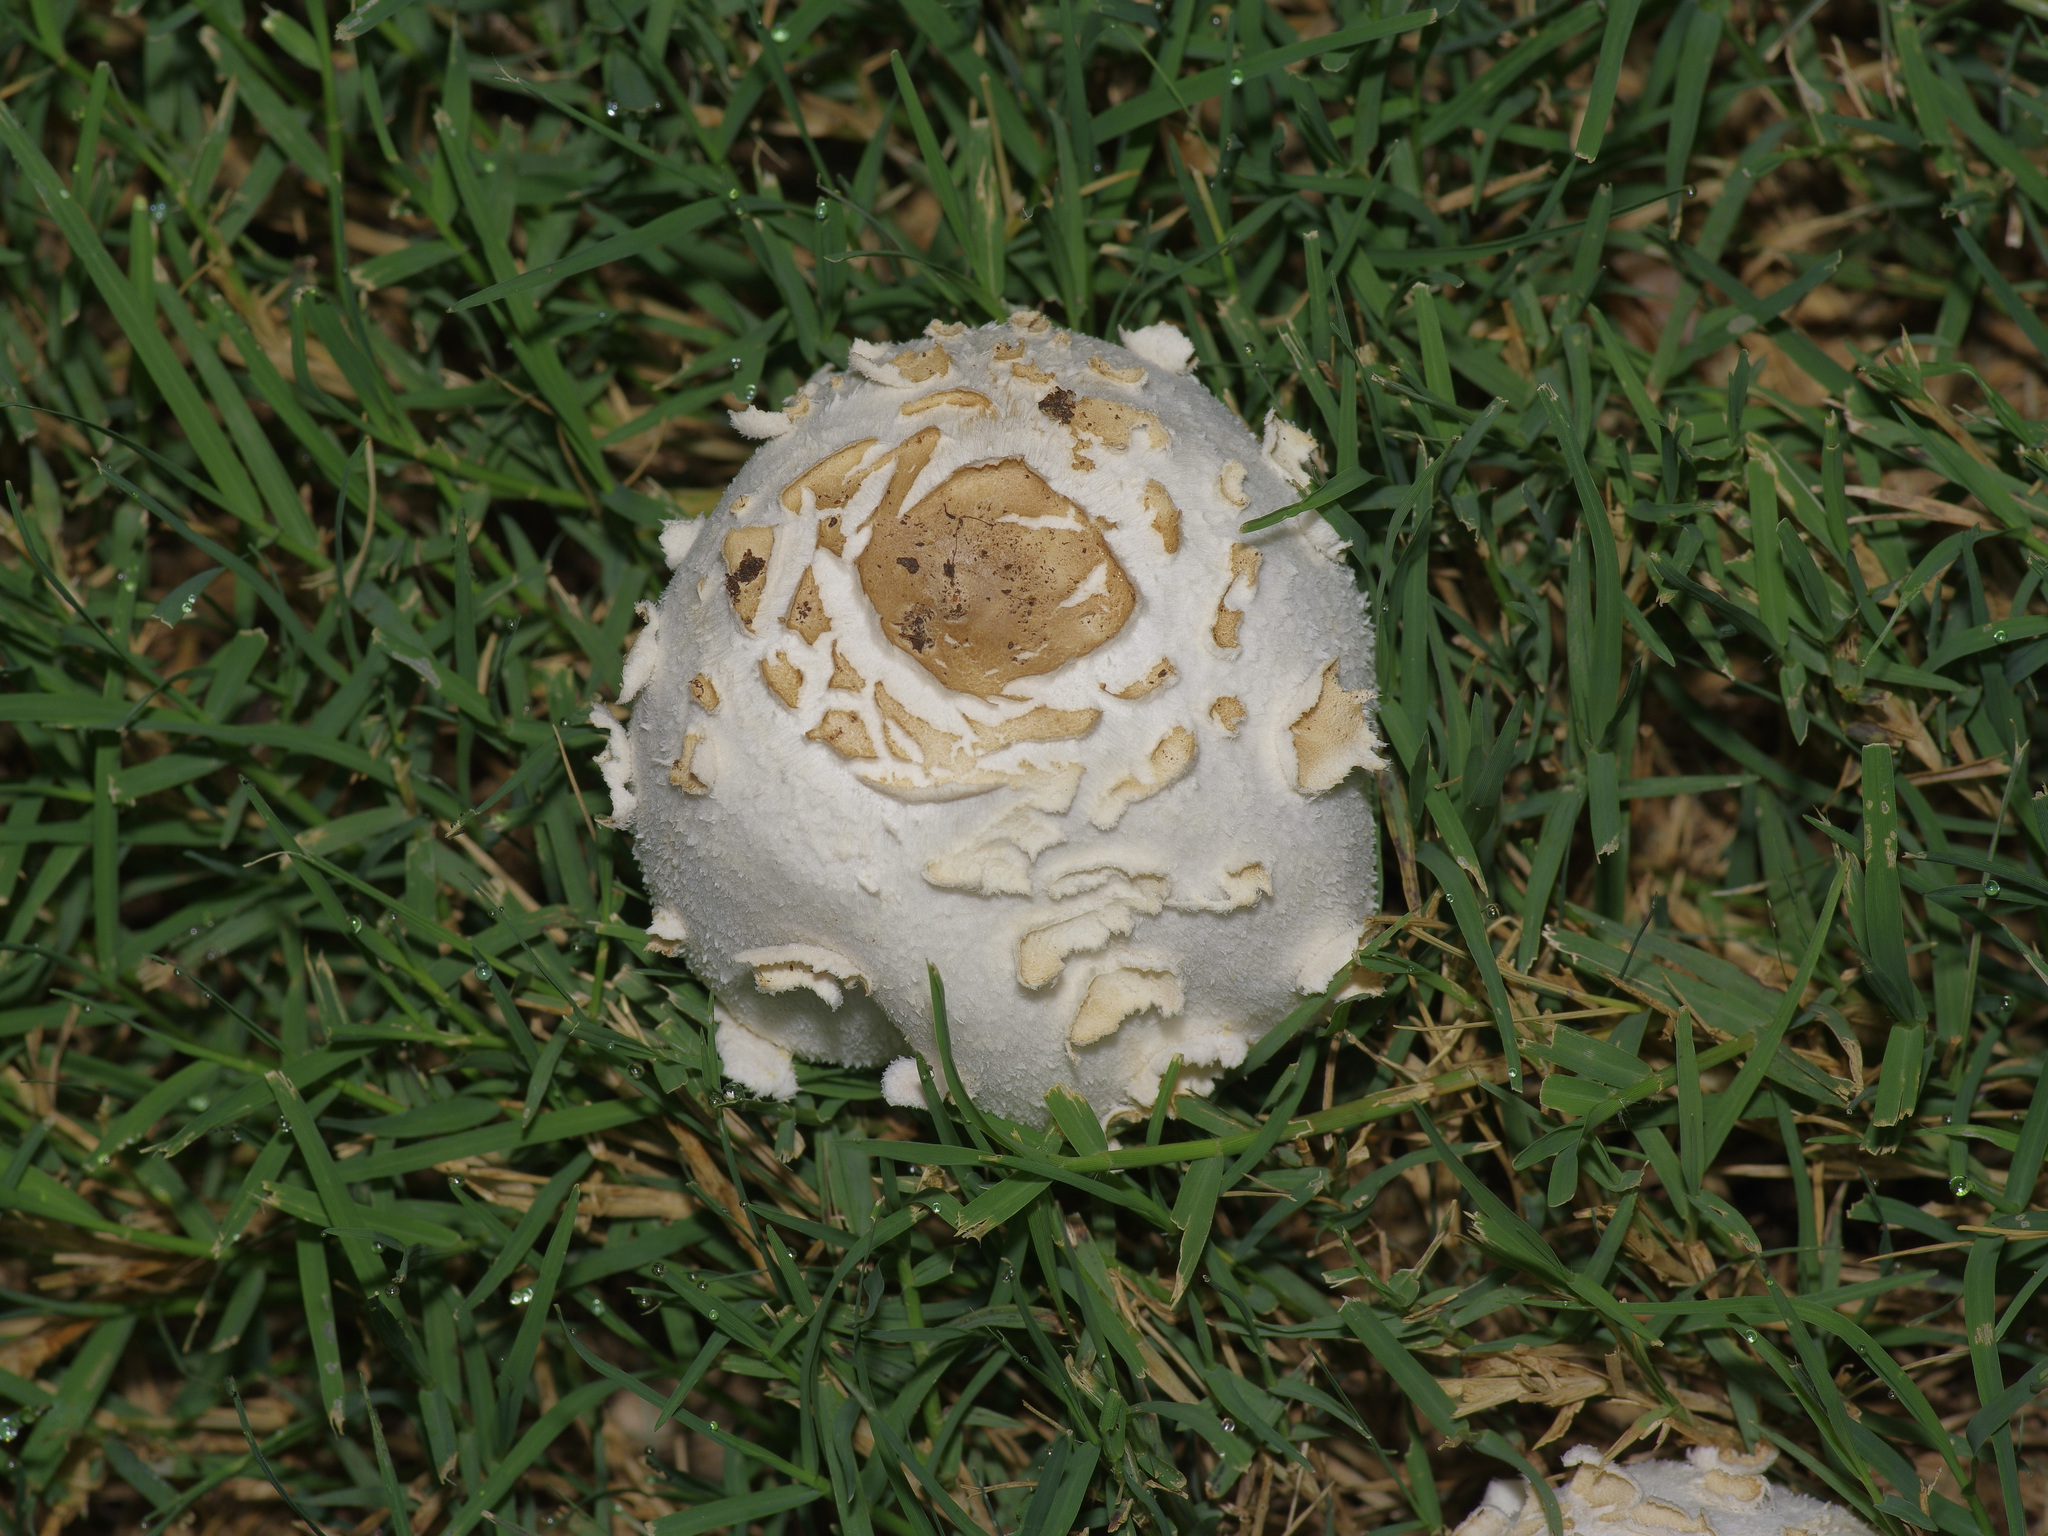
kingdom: Fungi
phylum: Basidiomycota
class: Agaricomycetes
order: Agaricales
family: Agaricaceae
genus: Chlorophyllum
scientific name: Chlorophyllum molybdites
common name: False parasol
